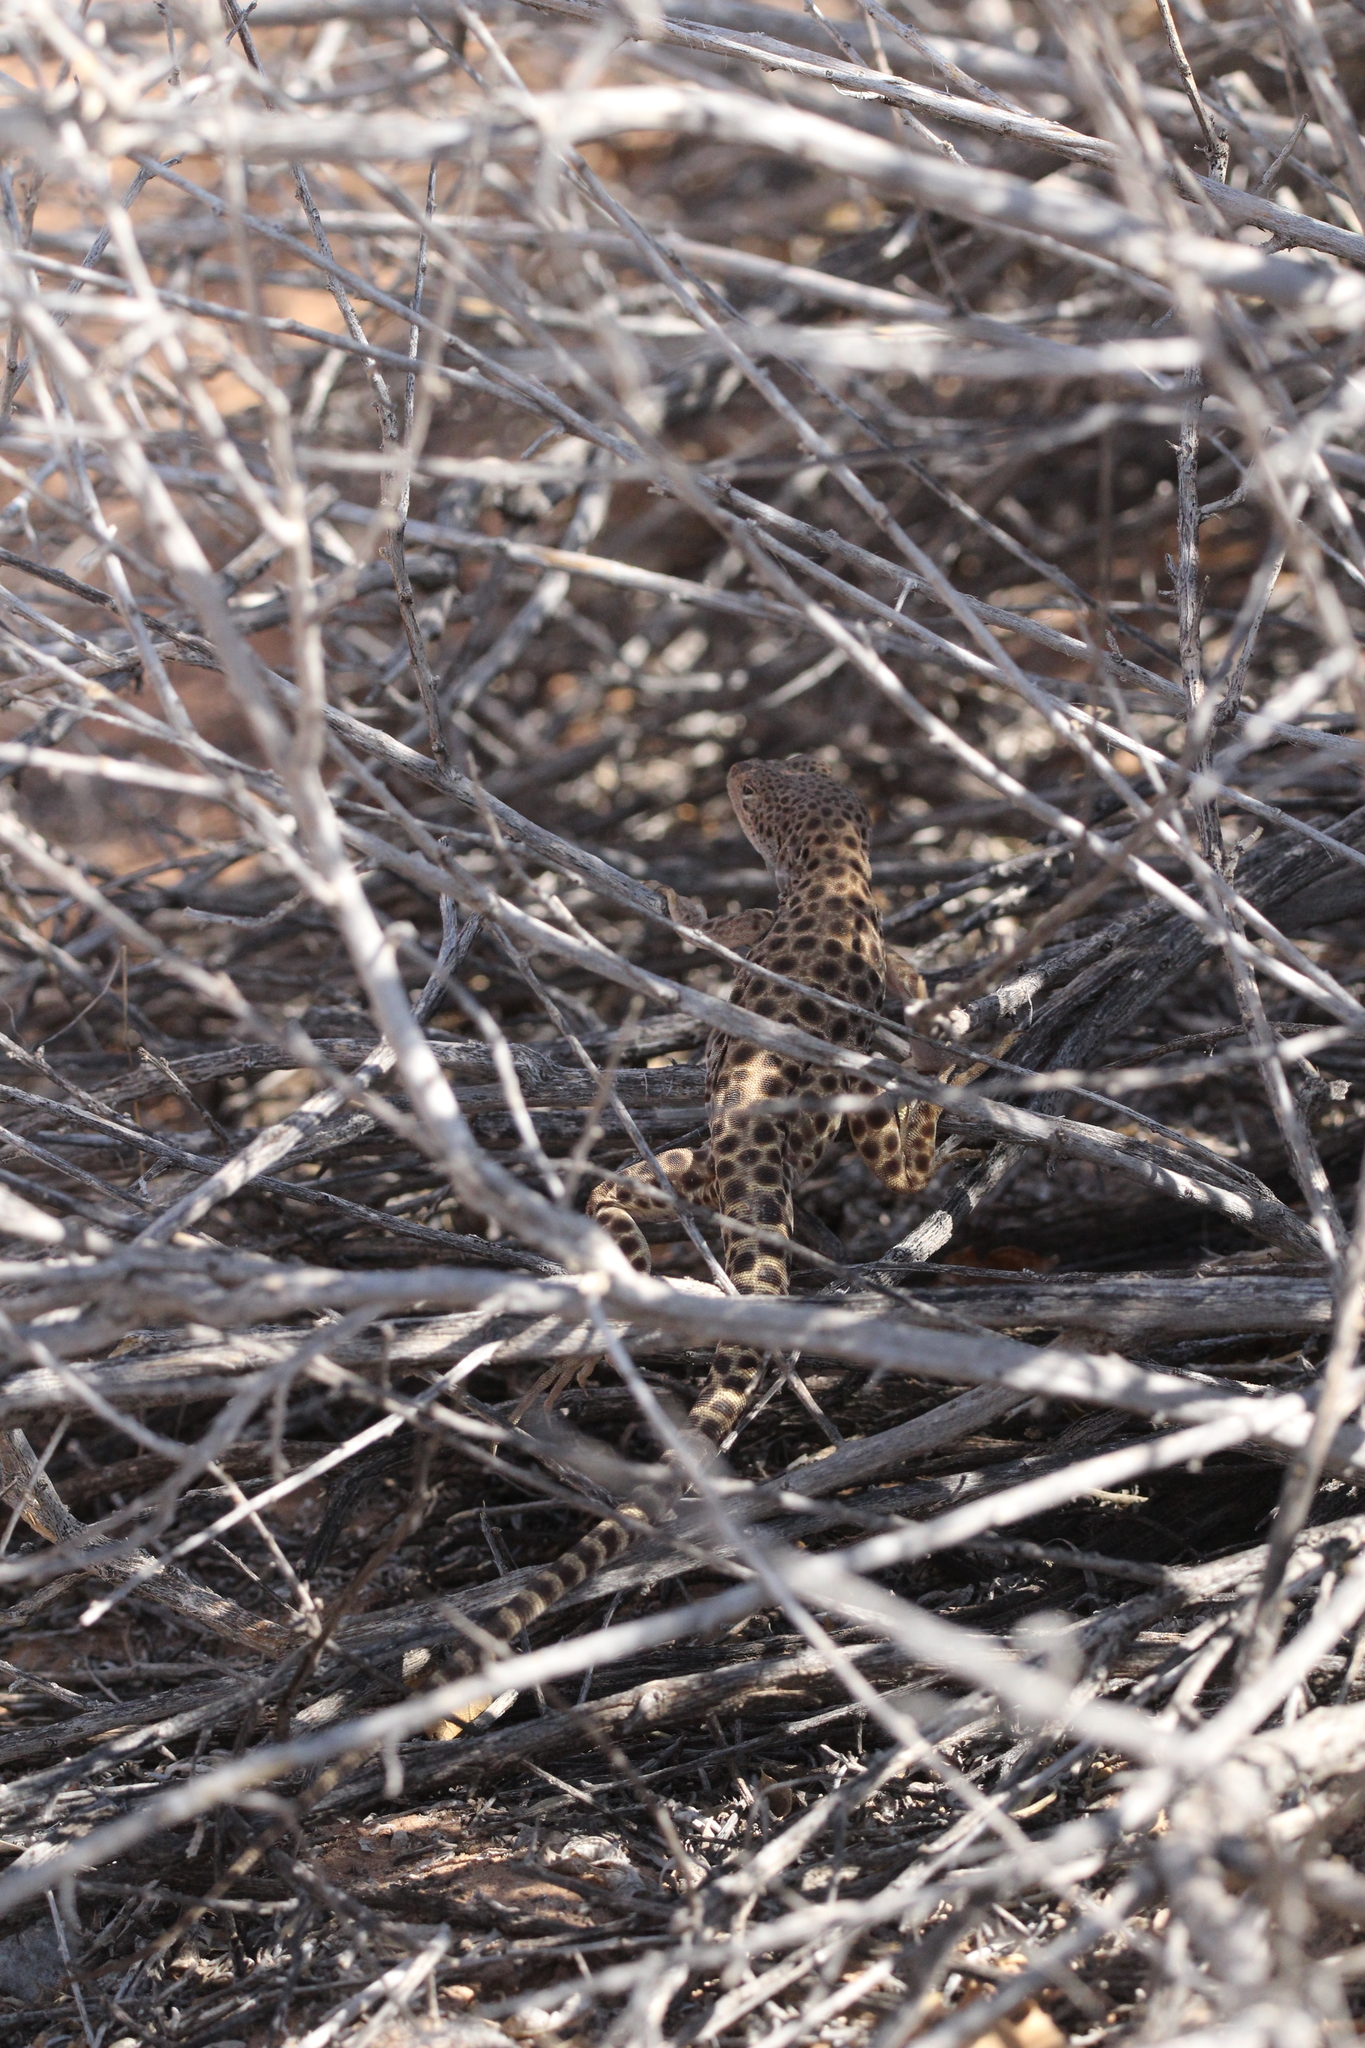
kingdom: Animalia
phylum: Chordata
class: Squamata
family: Crotaphytidae
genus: Gambelia
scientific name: Gambelia wislizenii
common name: Longnose leopard lizard
